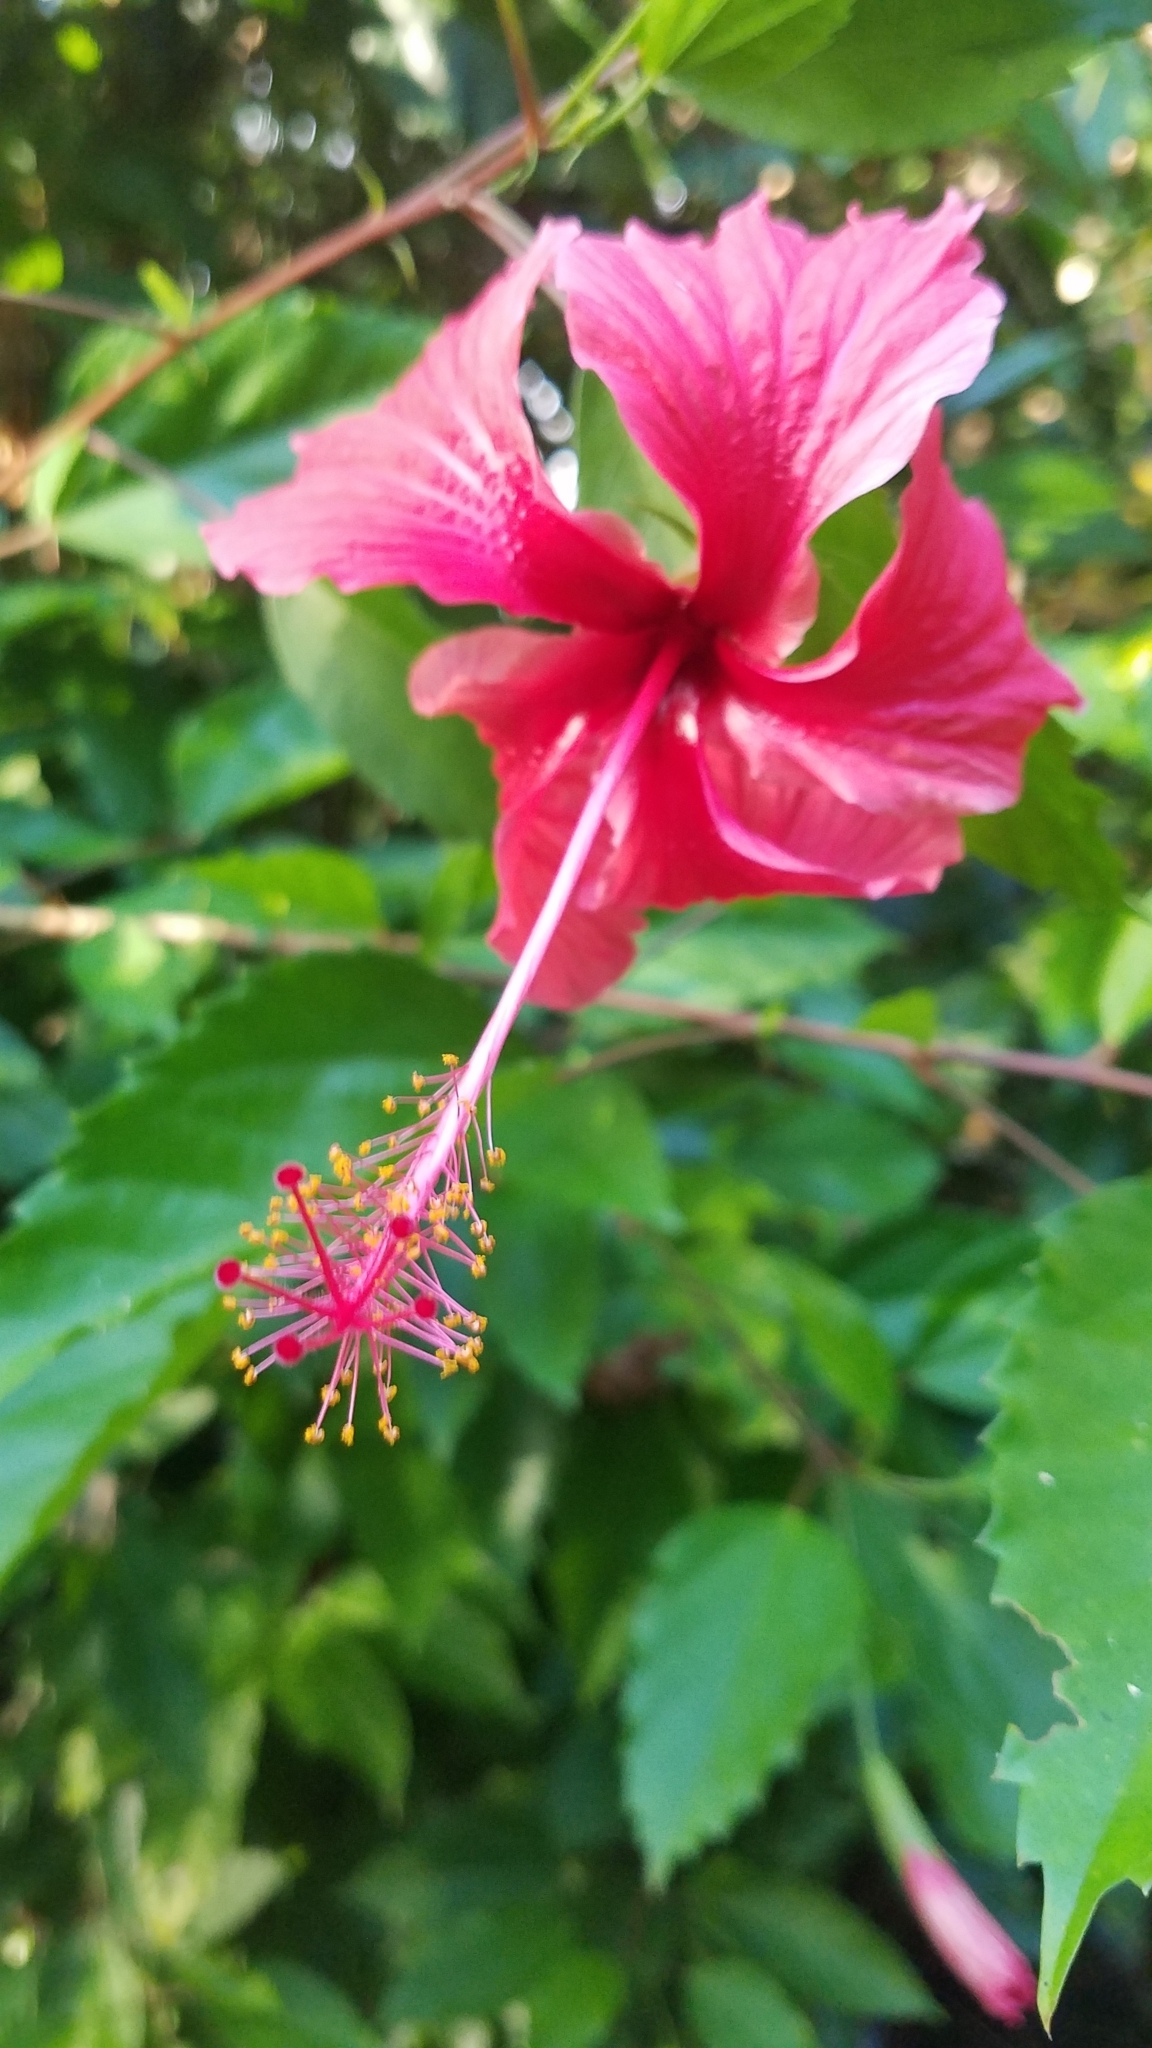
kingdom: Plantae
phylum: Tracheophyta
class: Magnoliopsida
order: Malvales
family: Malvaceae
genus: Hibiscus
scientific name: Hibiscus archeri
